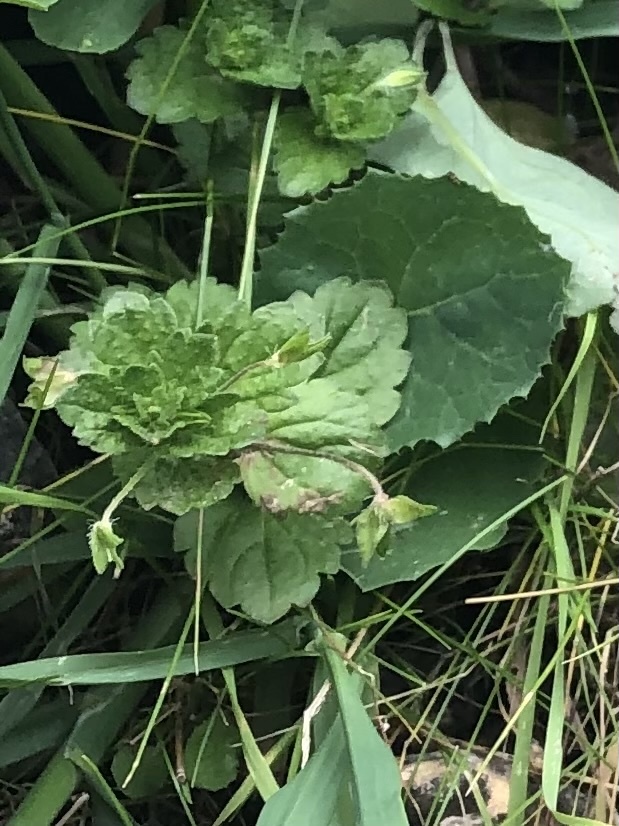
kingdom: Plantae
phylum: Tracheophyta
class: Magnoliopsida
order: Lamiales
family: Plantaginaceae
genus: Veronica
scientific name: Veronica persica
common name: Common field-speedwell
